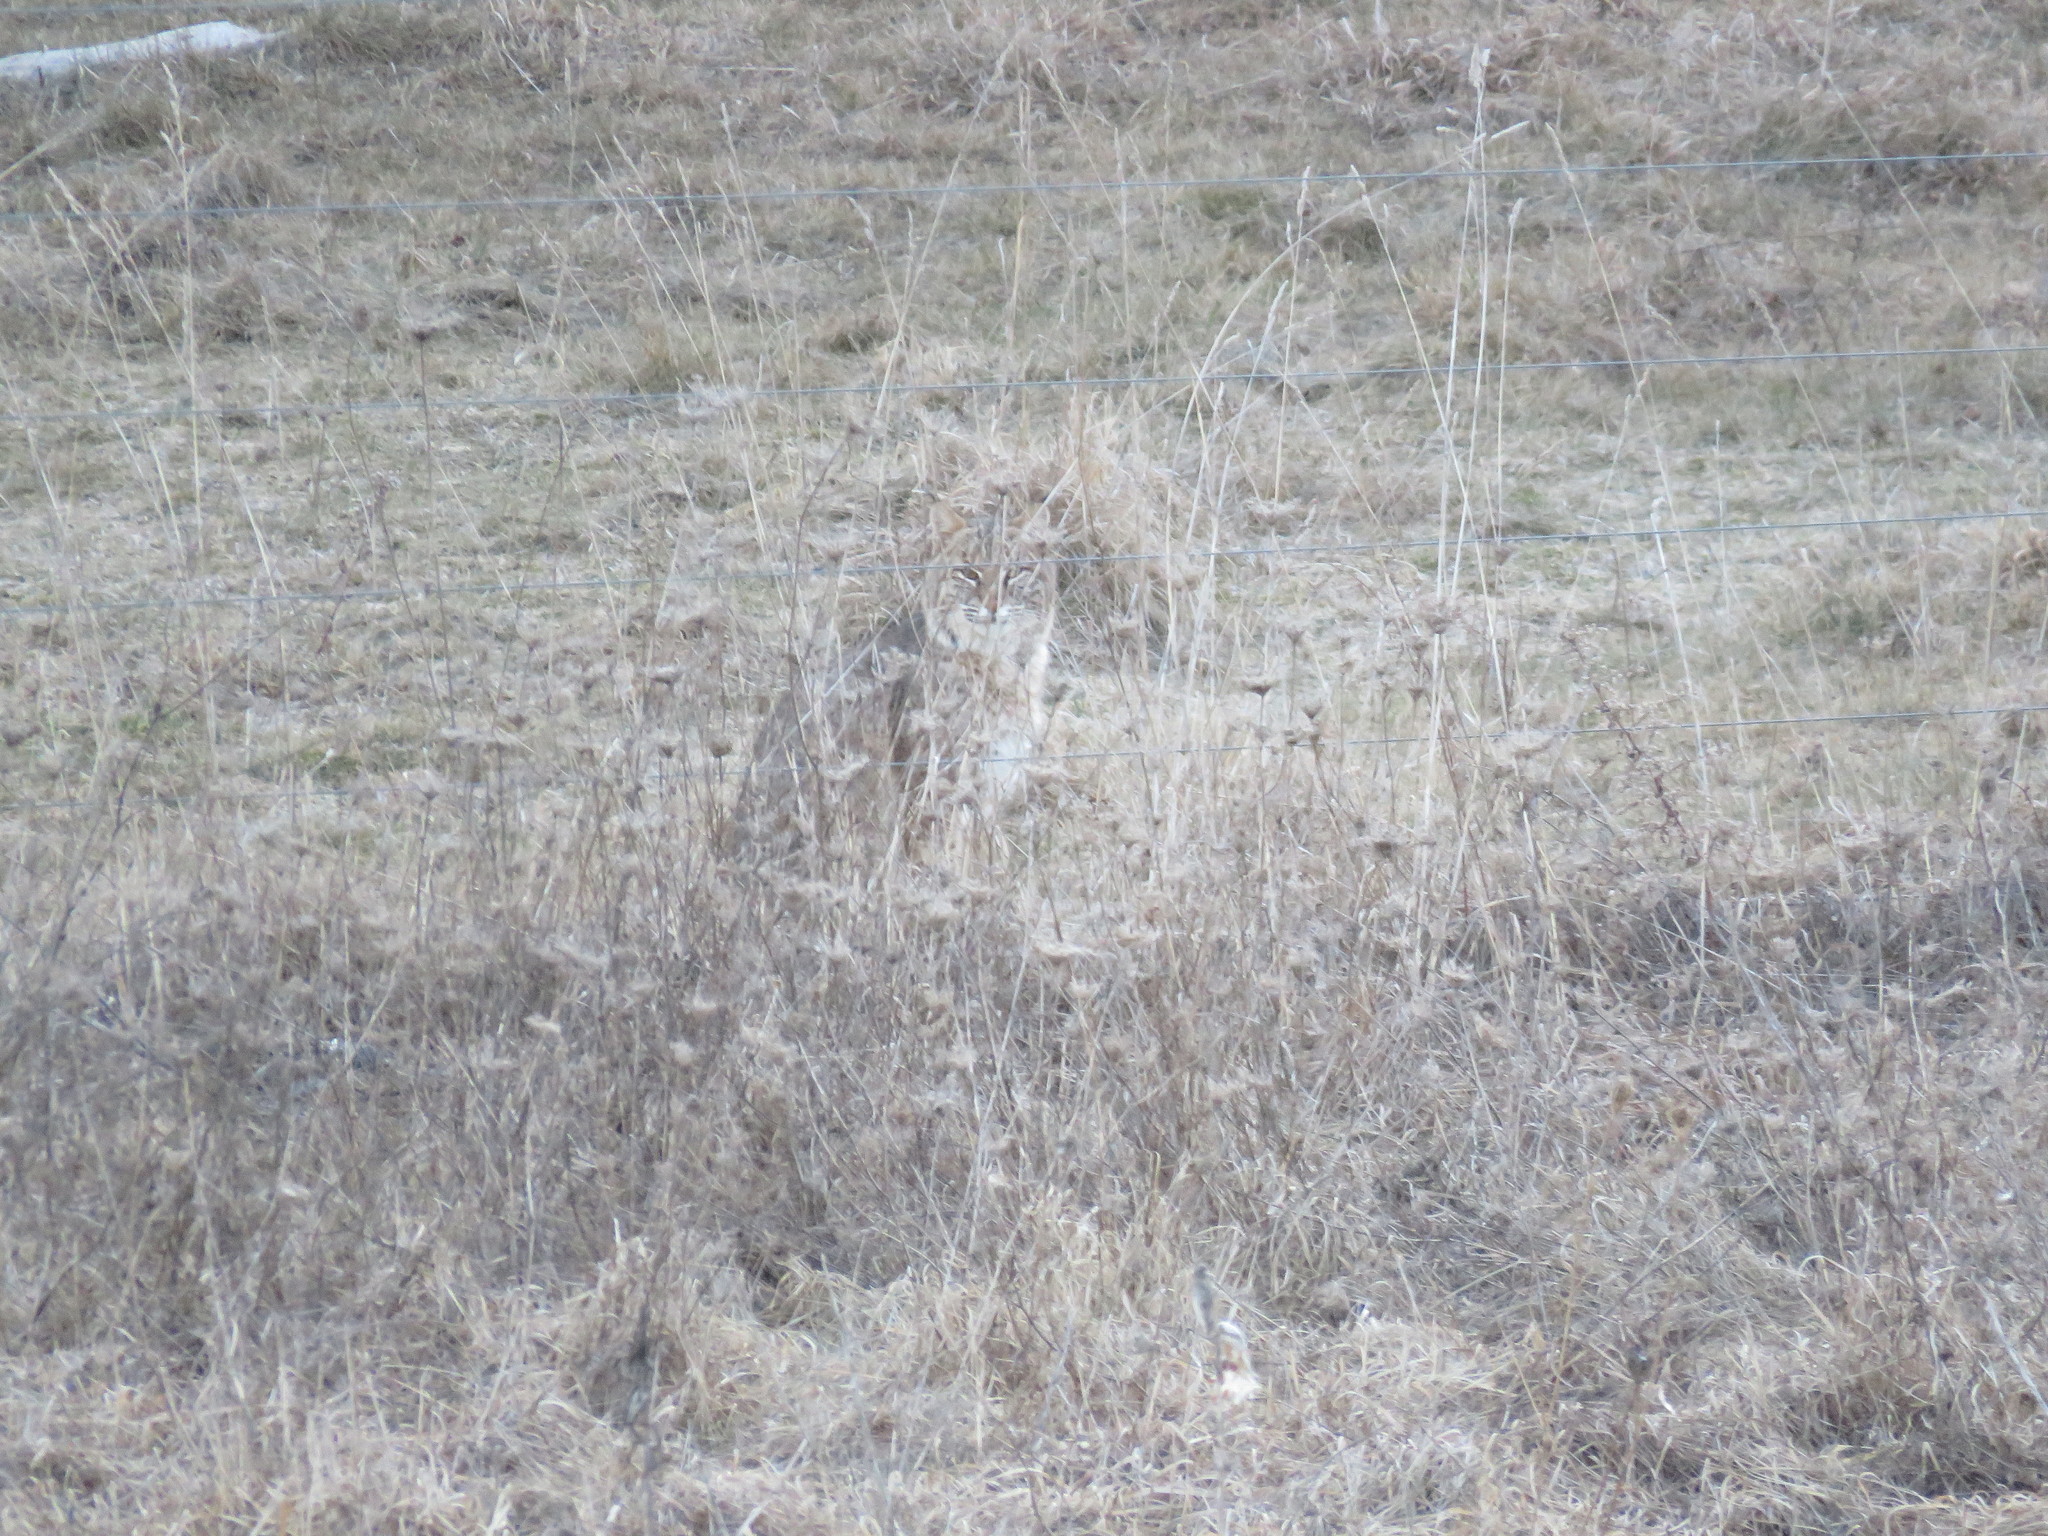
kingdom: Animalia
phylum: Chordata
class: Mammalia
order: Carnivora
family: Felidae
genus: Lynx
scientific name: Lynx rufus
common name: Bobcat
